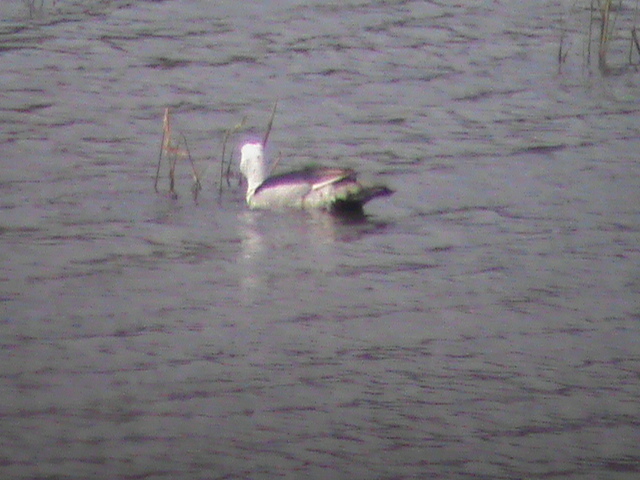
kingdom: Animalia
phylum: Chordata
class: Aves
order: Anseriformes
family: Anatidae
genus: Nettapus
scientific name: Nettapus coromandelianus
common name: Cotton pygmy-goose
